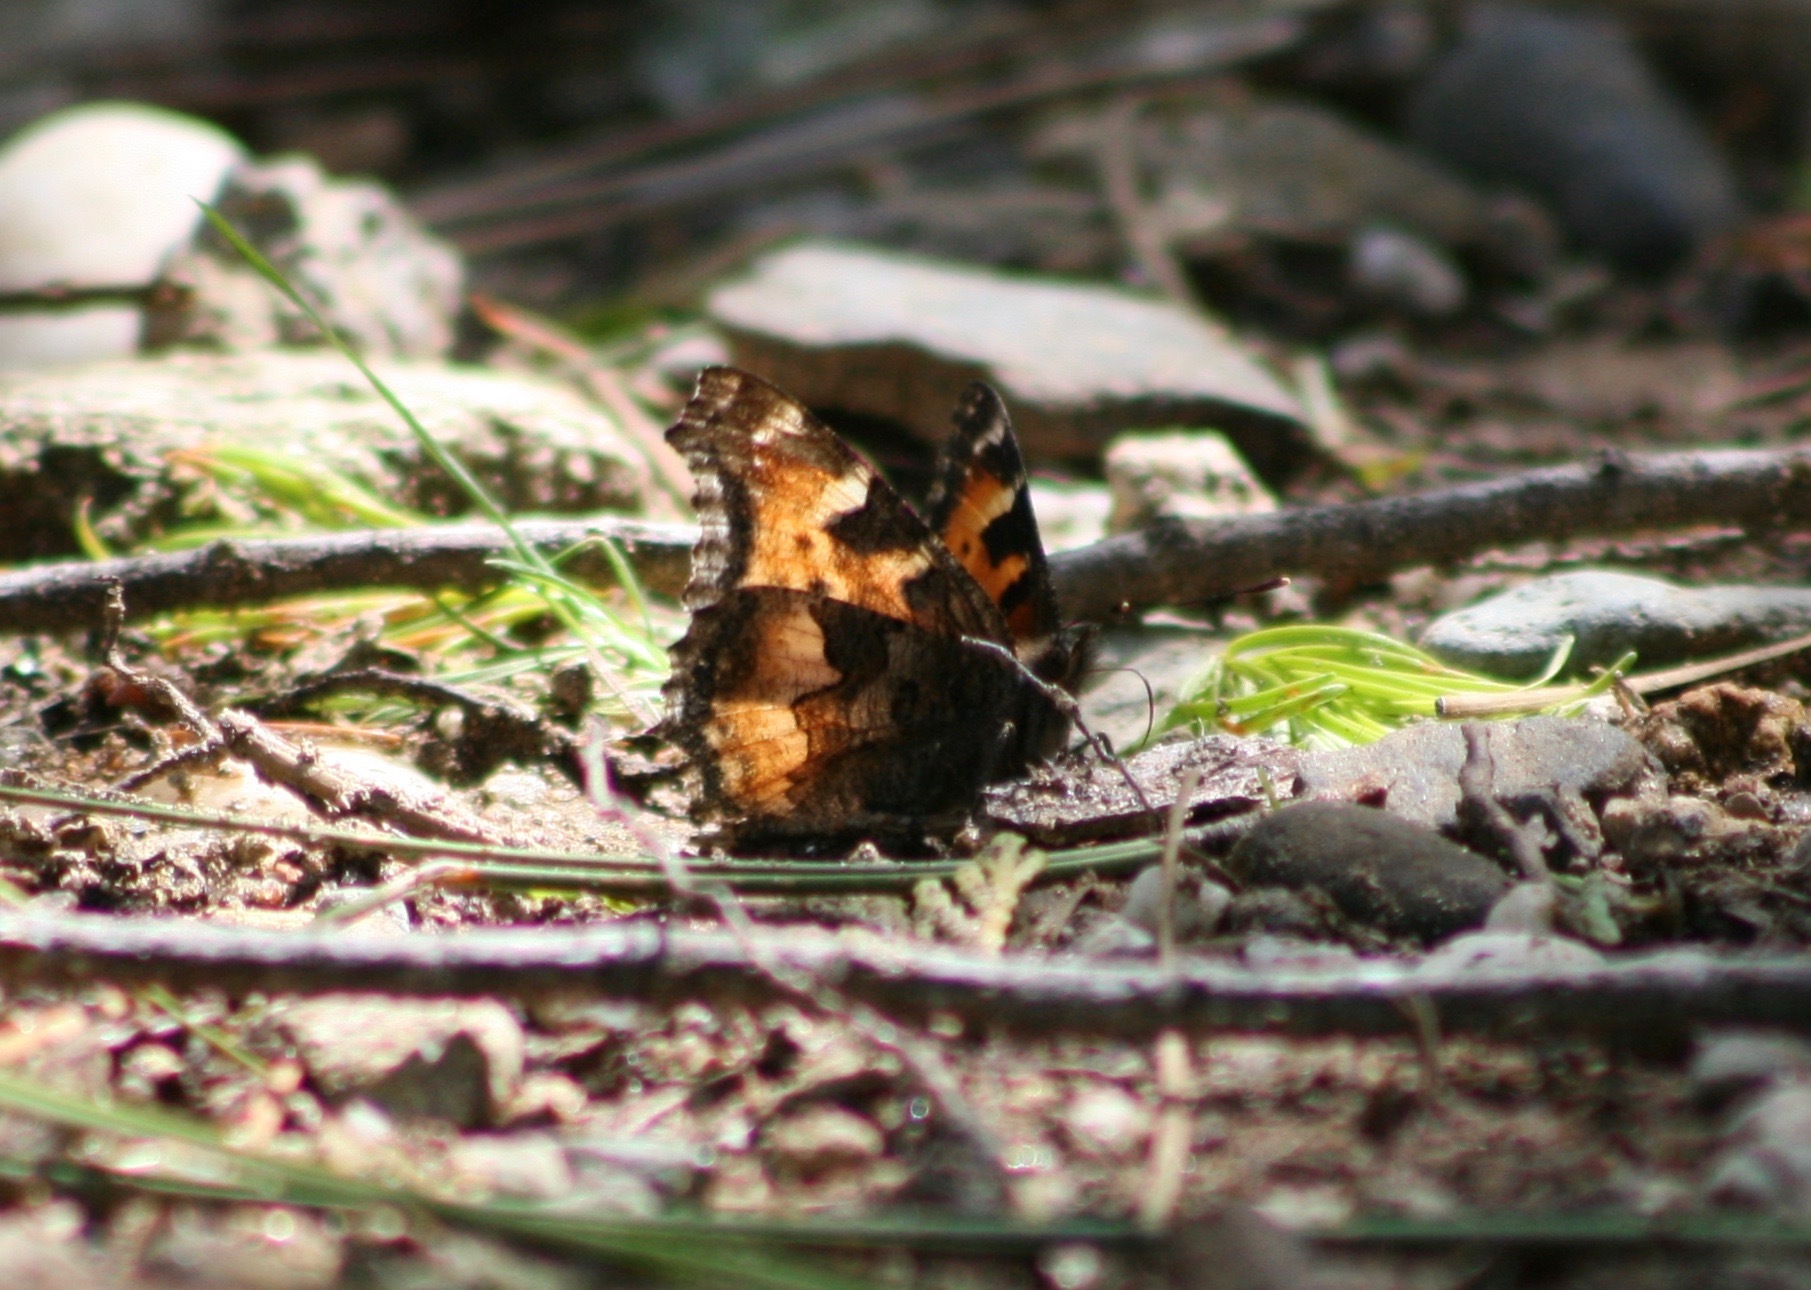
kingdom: Animalia
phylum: Arthropoda
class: Insecta
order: Lepidoptera
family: Nymphalidae
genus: Nymphalis
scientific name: Nymphalis californica
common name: California tortoiseshell
